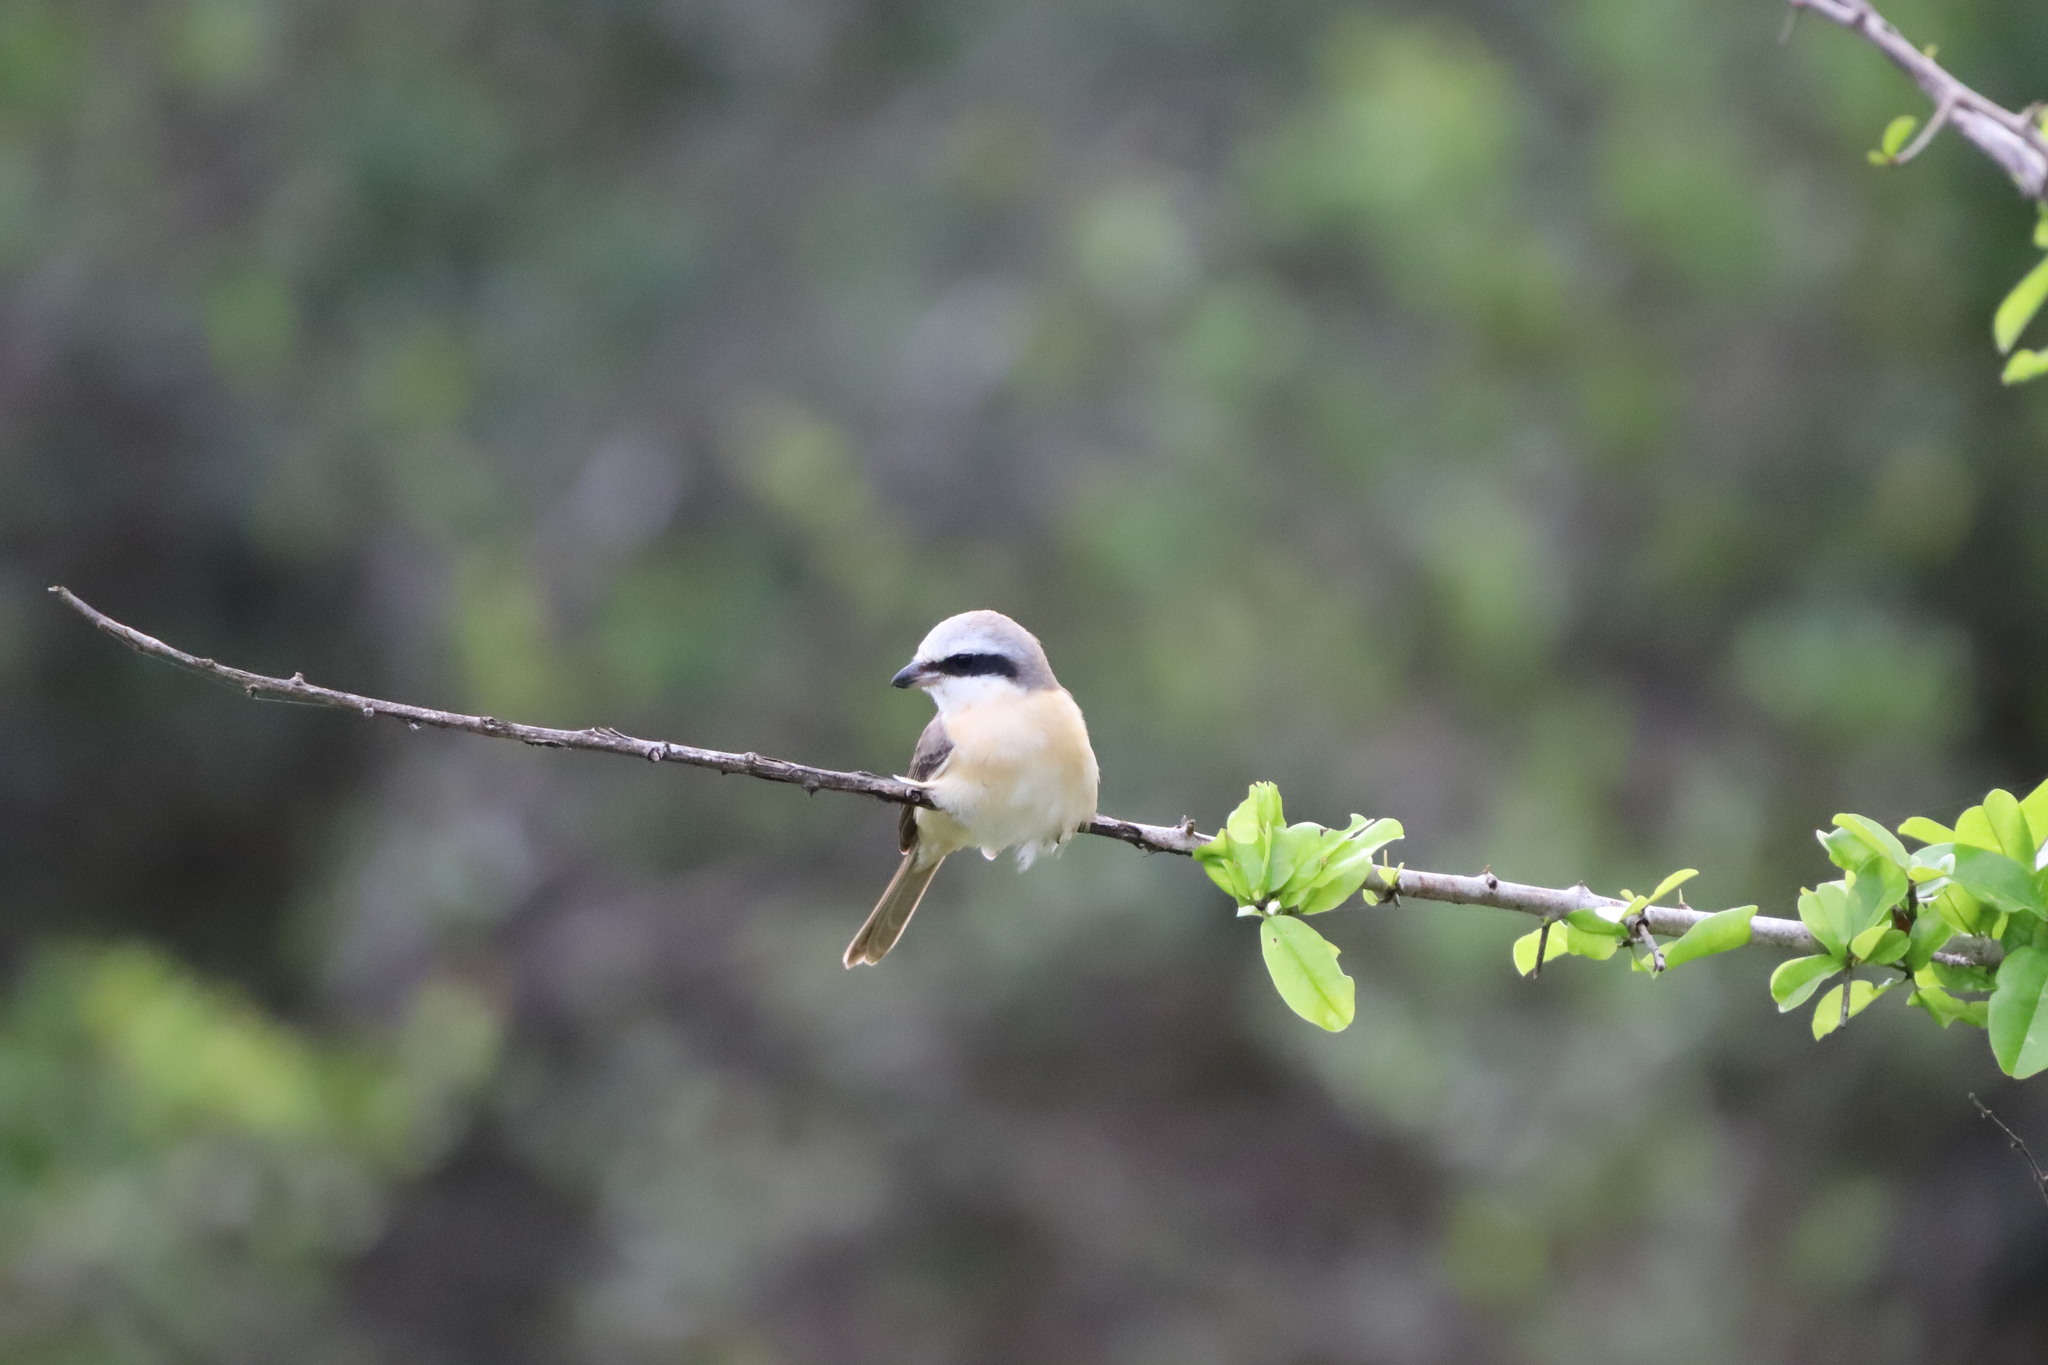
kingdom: Animalia
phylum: Chordata
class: Aves
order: Passeriformes
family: Laniidae
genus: Lanius
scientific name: Lanius cristatus
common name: Brown shrike
